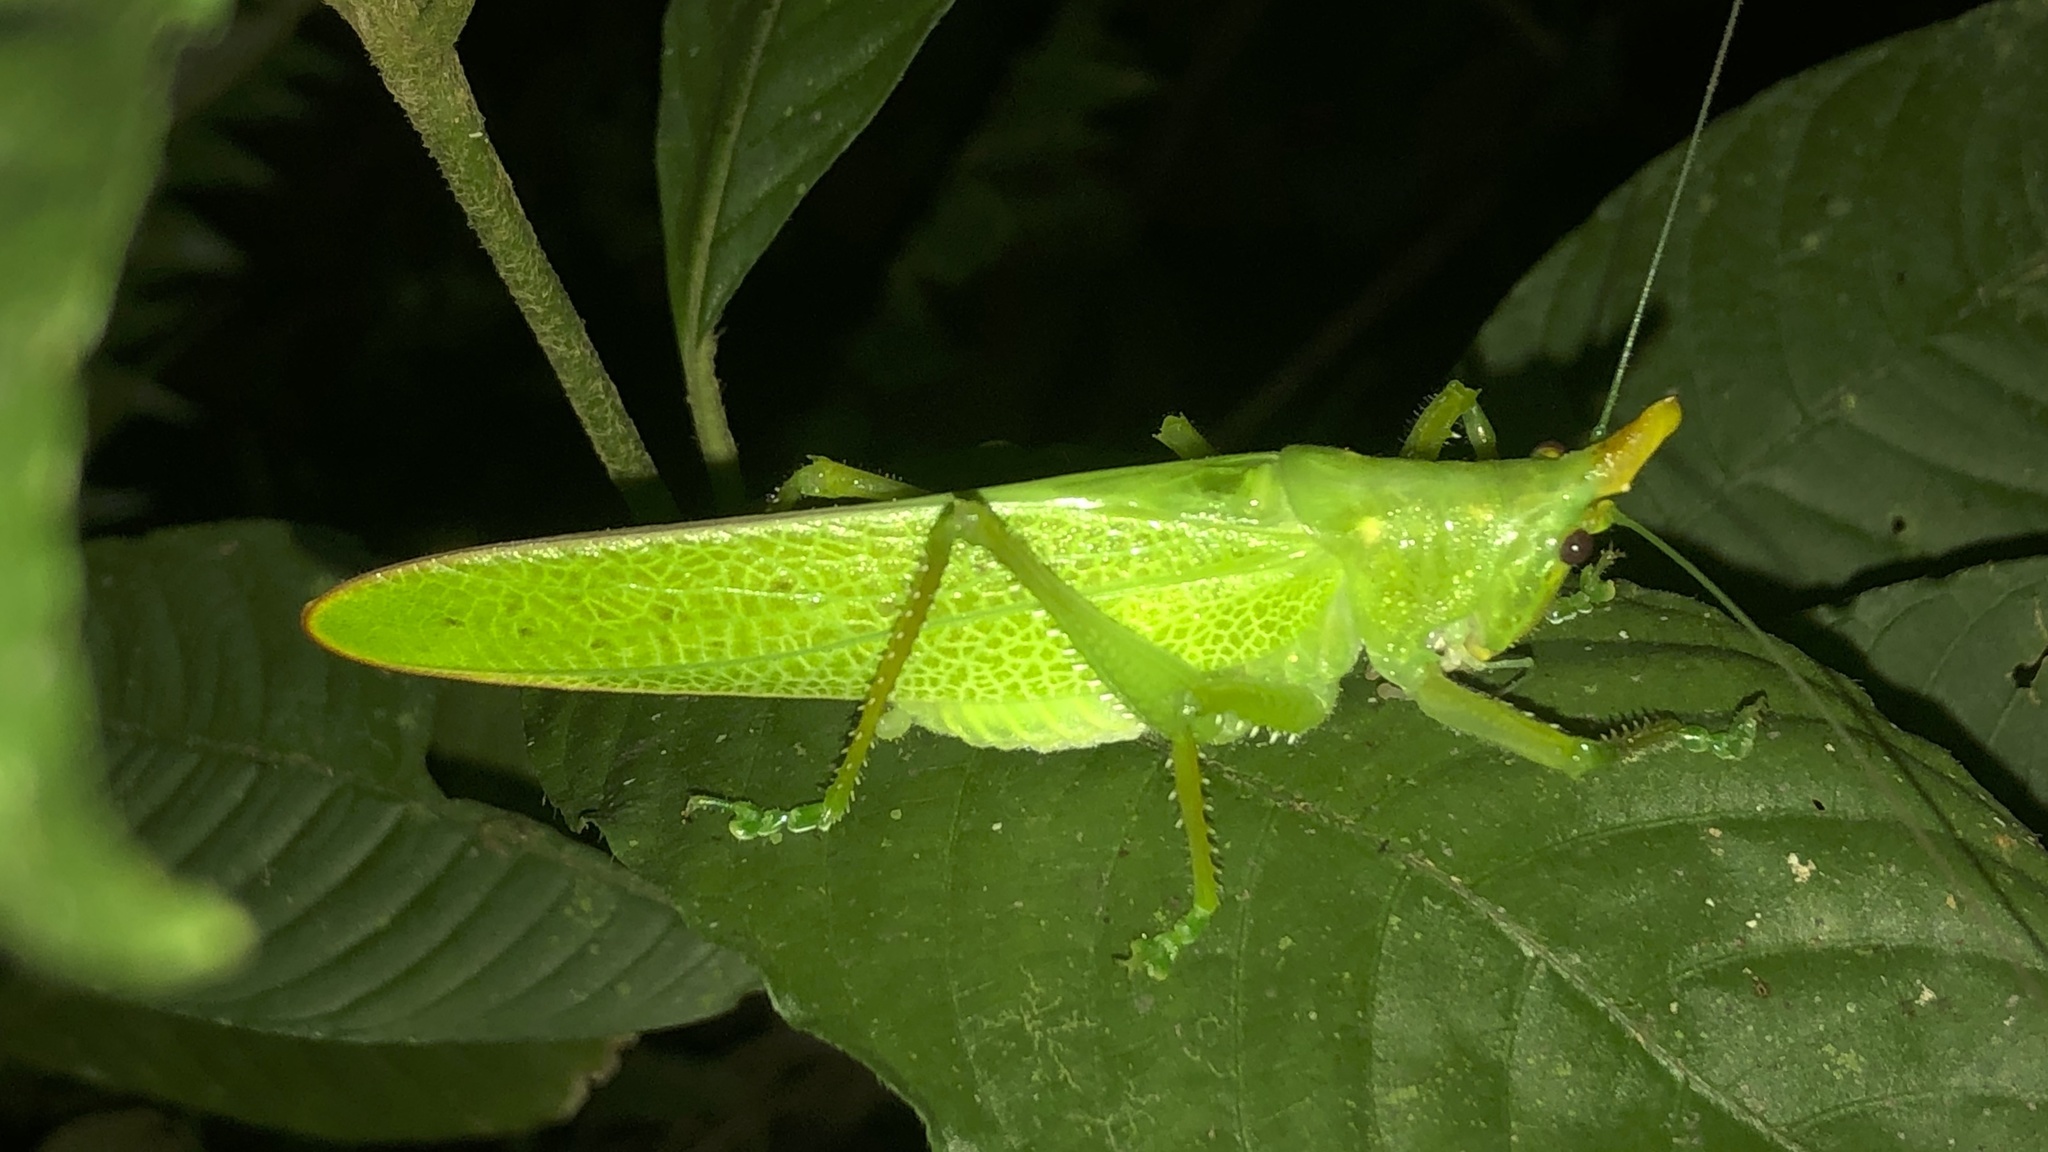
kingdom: Animalia
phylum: Arthropoda
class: Insecta
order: Orthoptera
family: Tettigoniidae
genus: Copiphora
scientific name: Copiphora cultricornis
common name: Yellow-faced spear bearer
